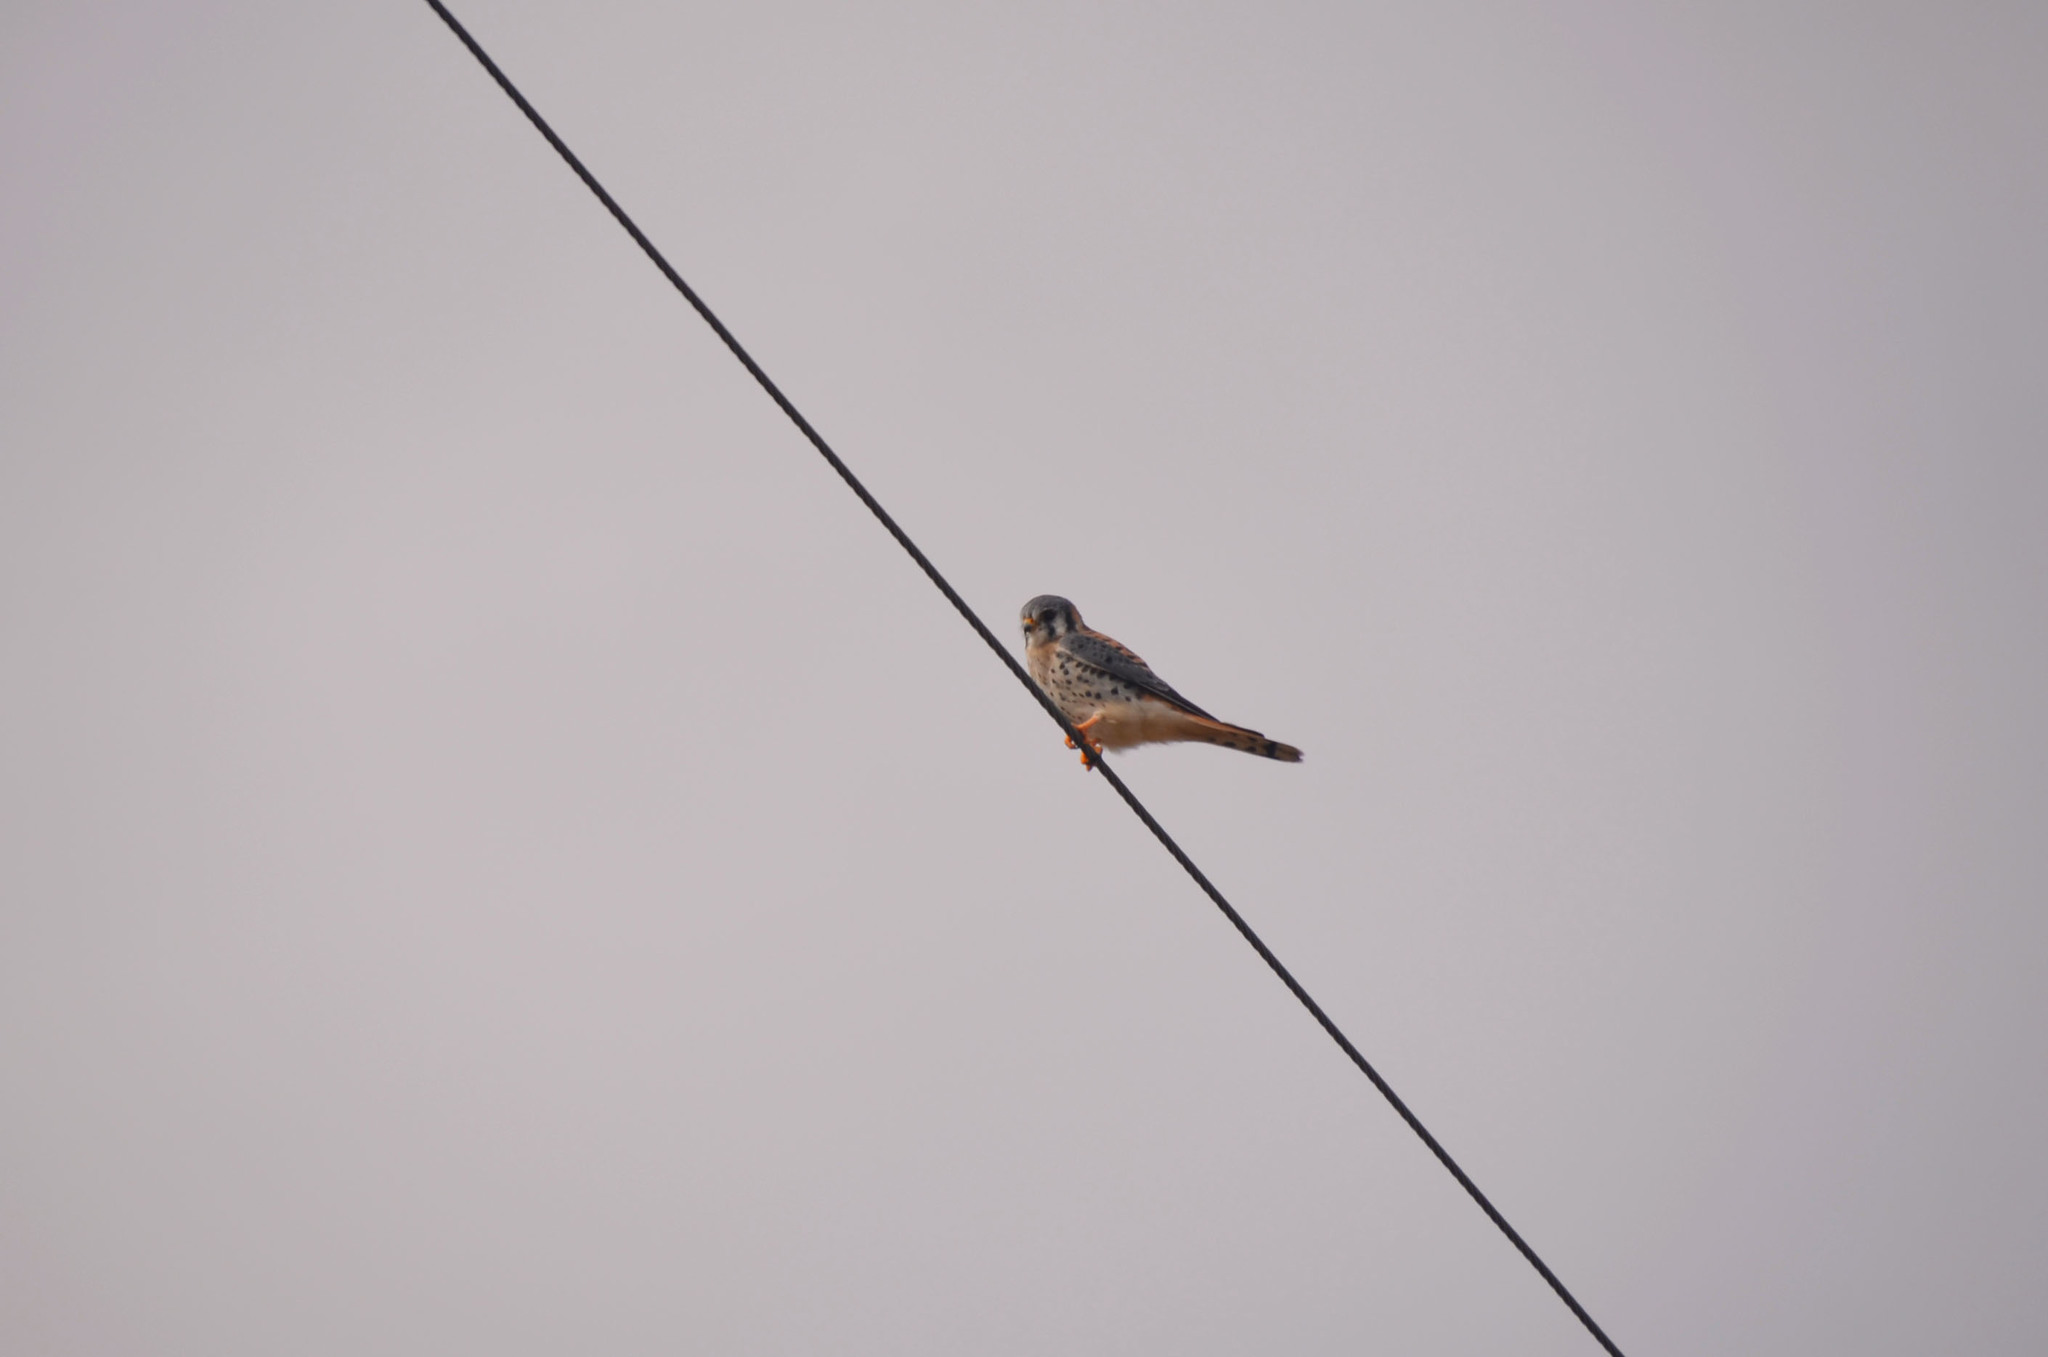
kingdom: Animalia
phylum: Chordata
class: Aves
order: Falconiformes
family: Falconidae
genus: Falco
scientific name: Falco sparverius
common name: American kestrel
